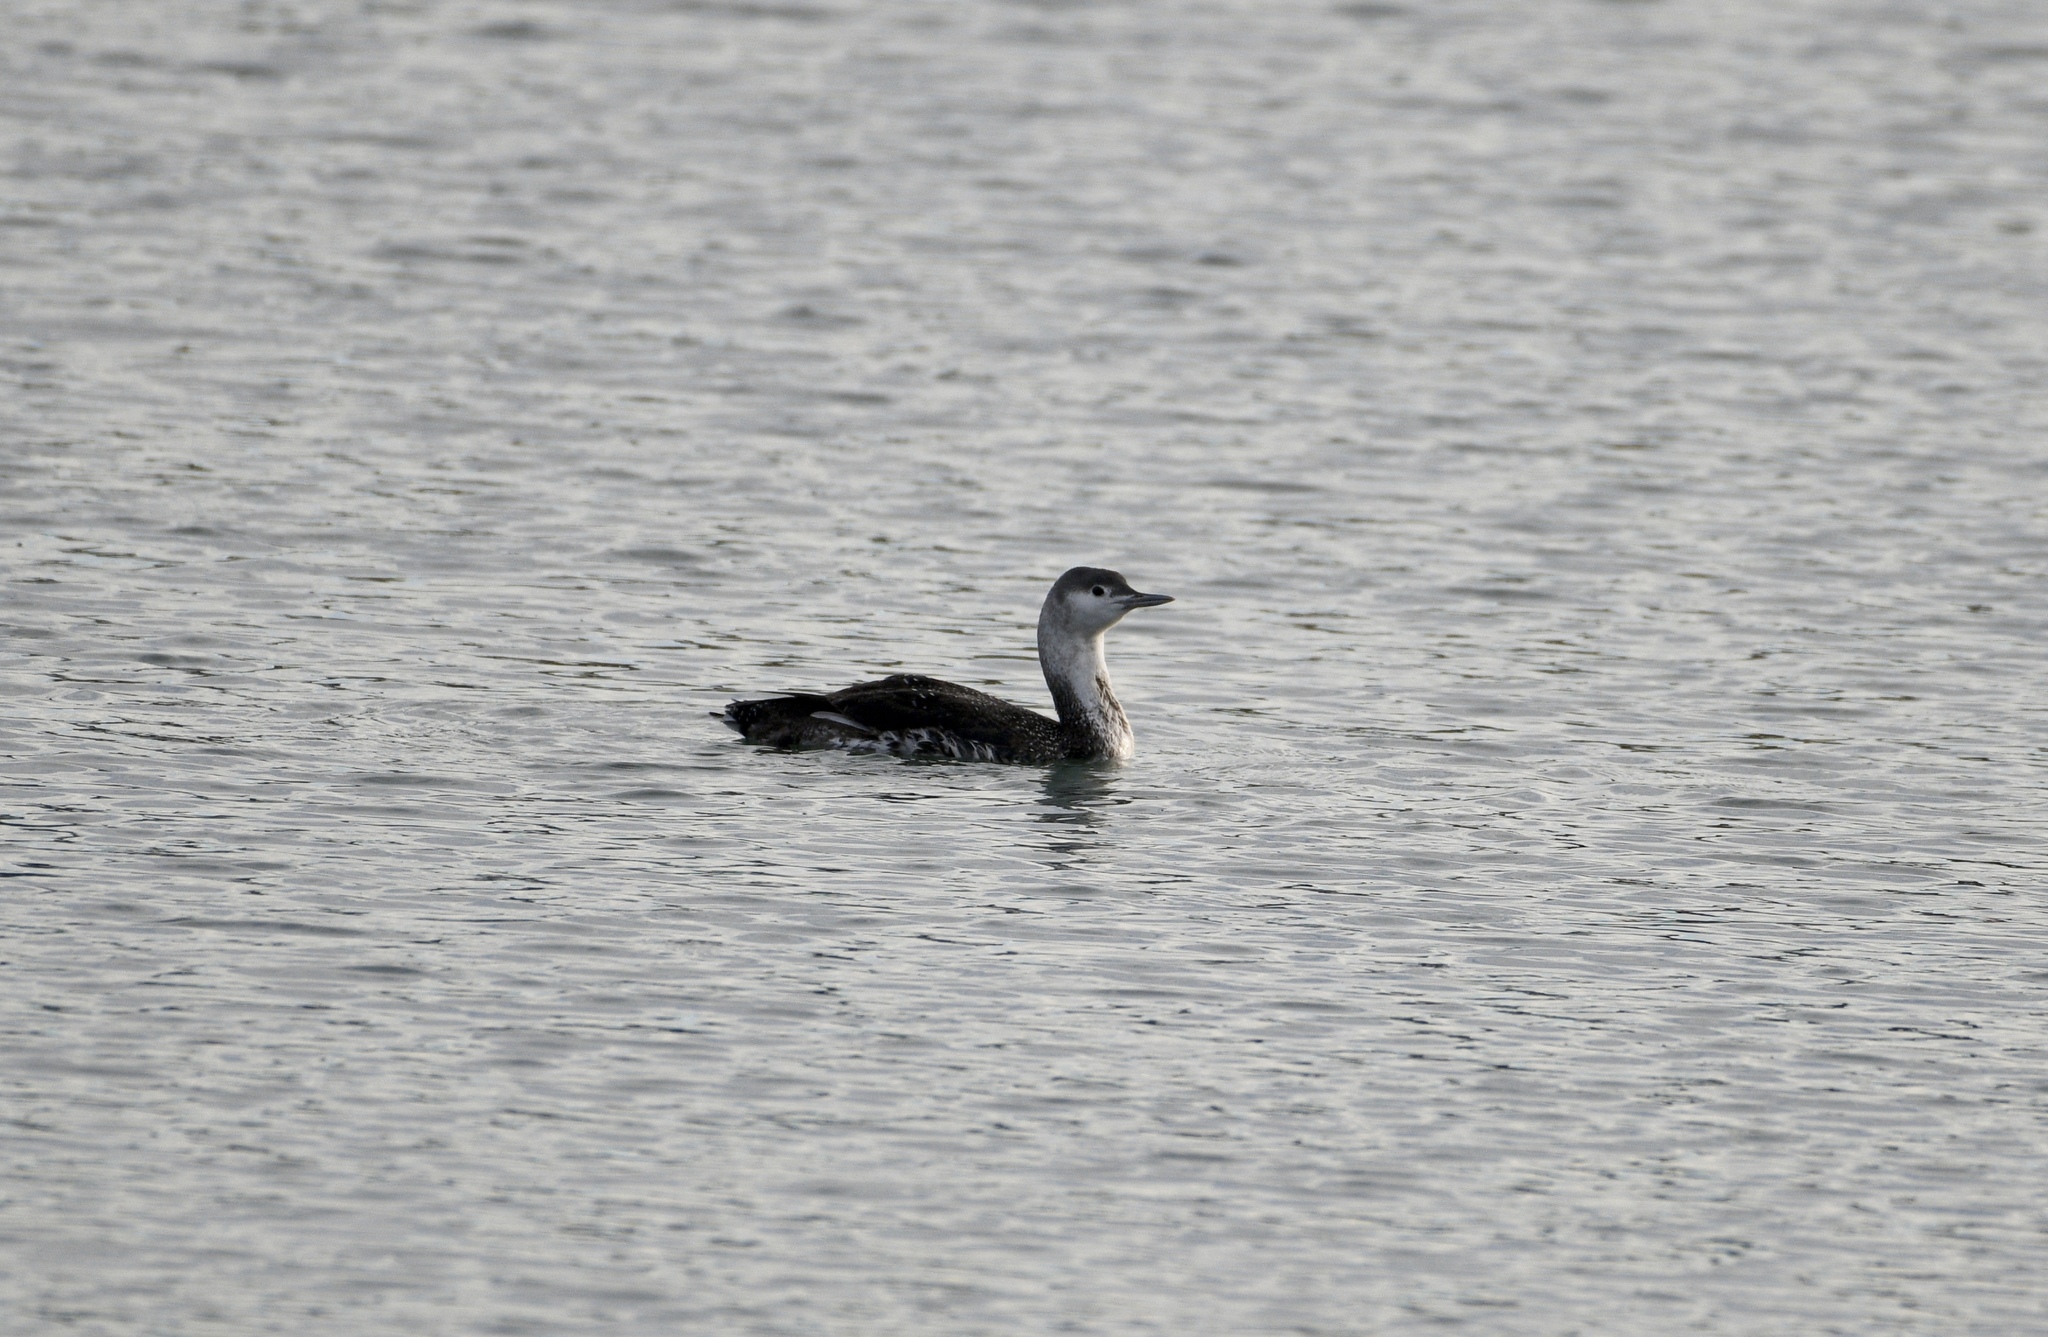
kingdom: Animalia
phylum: Chordata
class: Aves
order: Gaviiformes
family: Gaviidae
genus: Gavia
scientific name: Gavia stellata
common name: Red-throated loon
